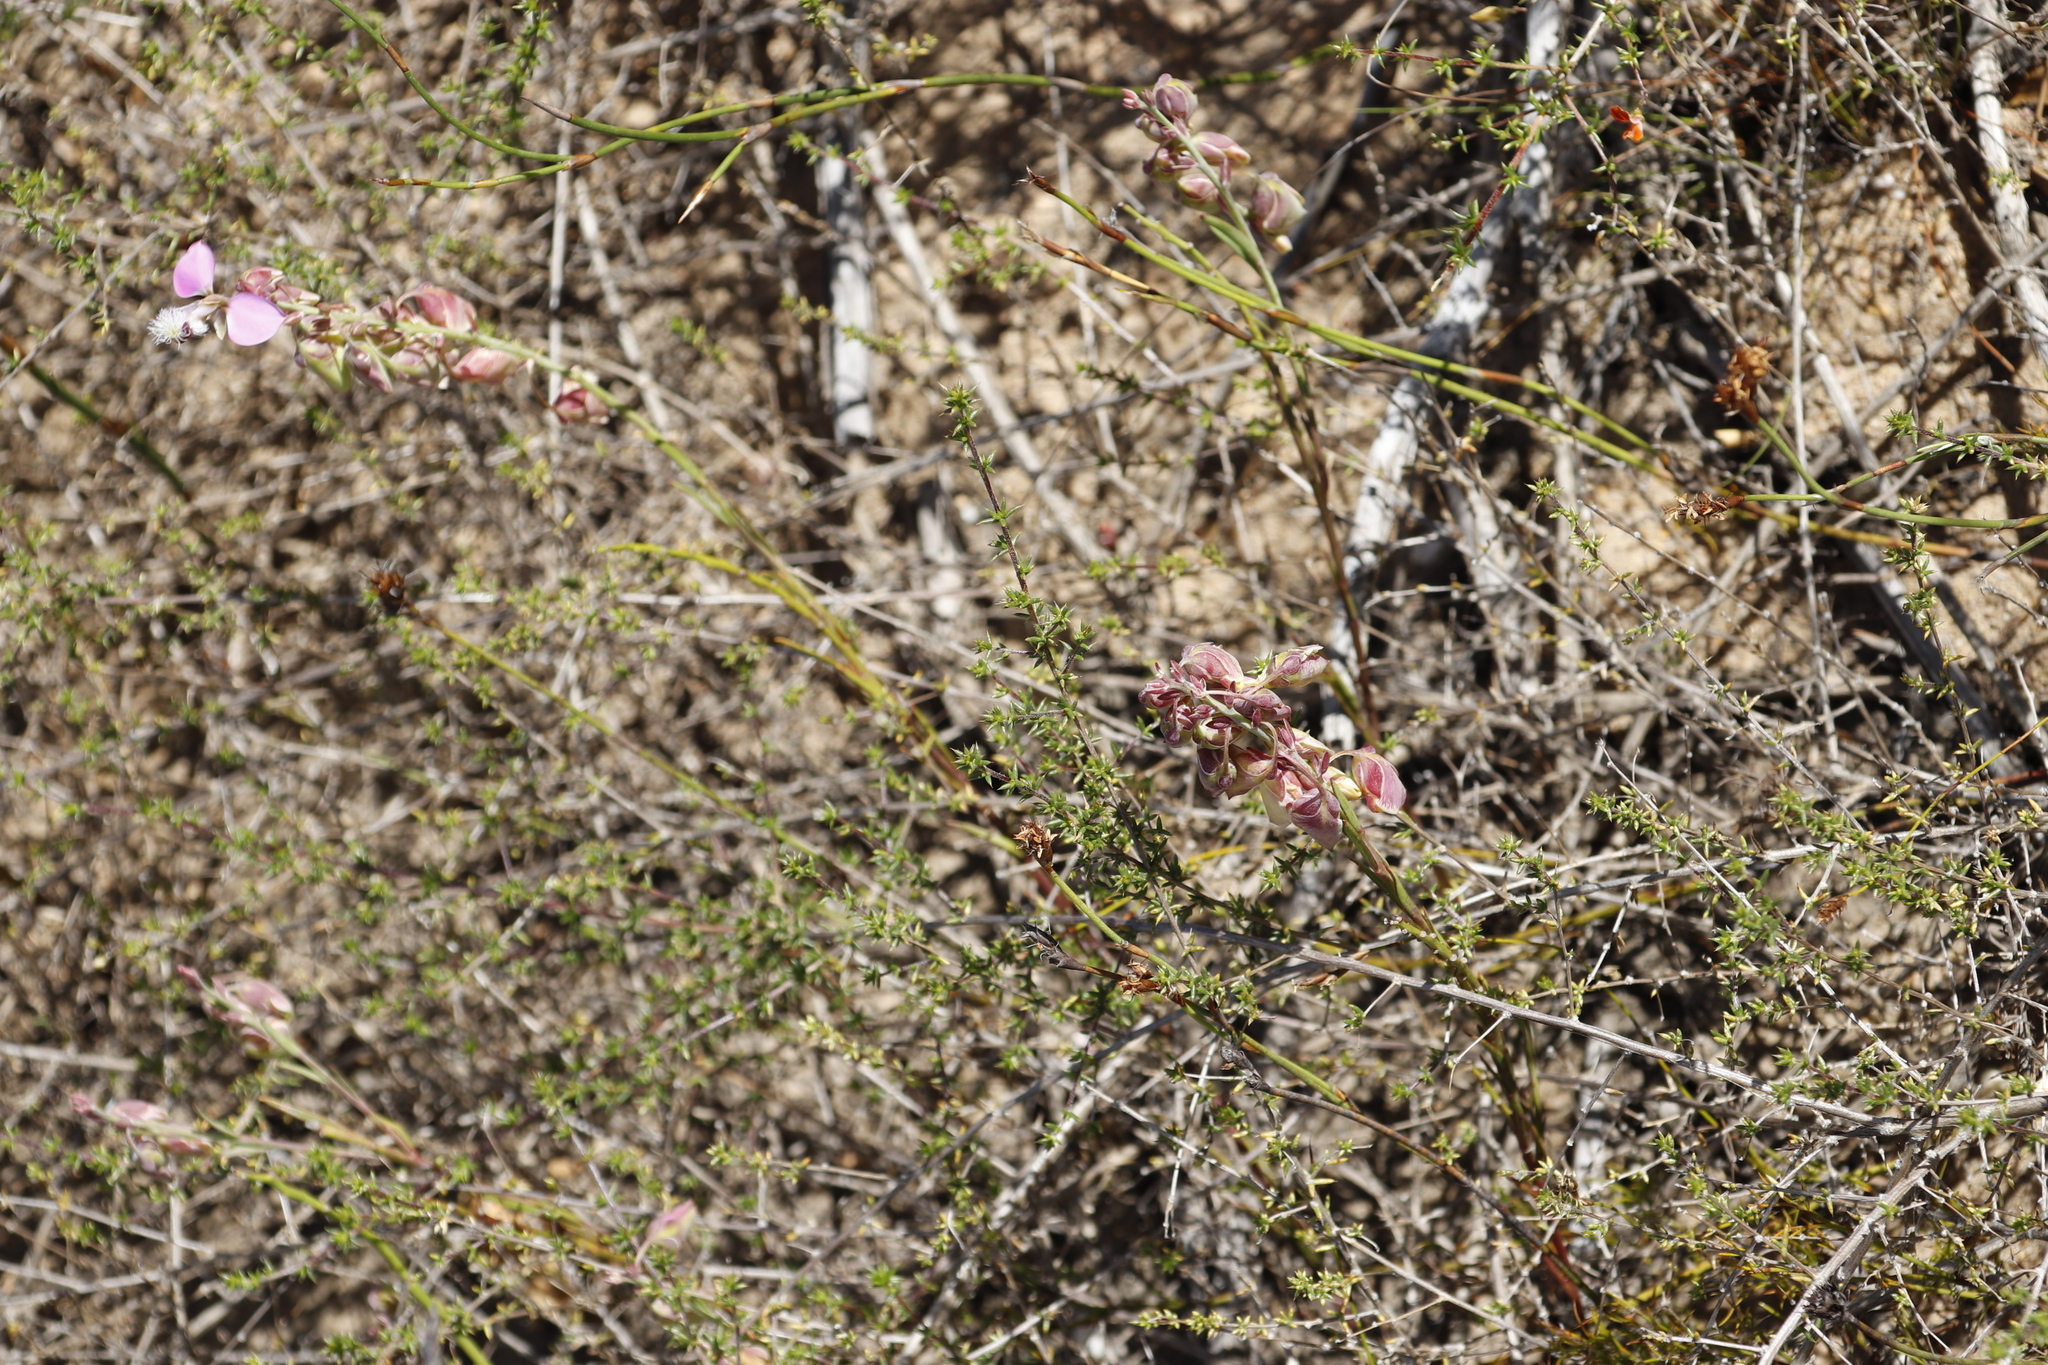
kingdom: Plantae
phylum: Tracheophyta
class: Magnoliopsida
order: Fabales
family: Polygalaceae
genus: Polygala
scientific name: Polygala bracteolata
